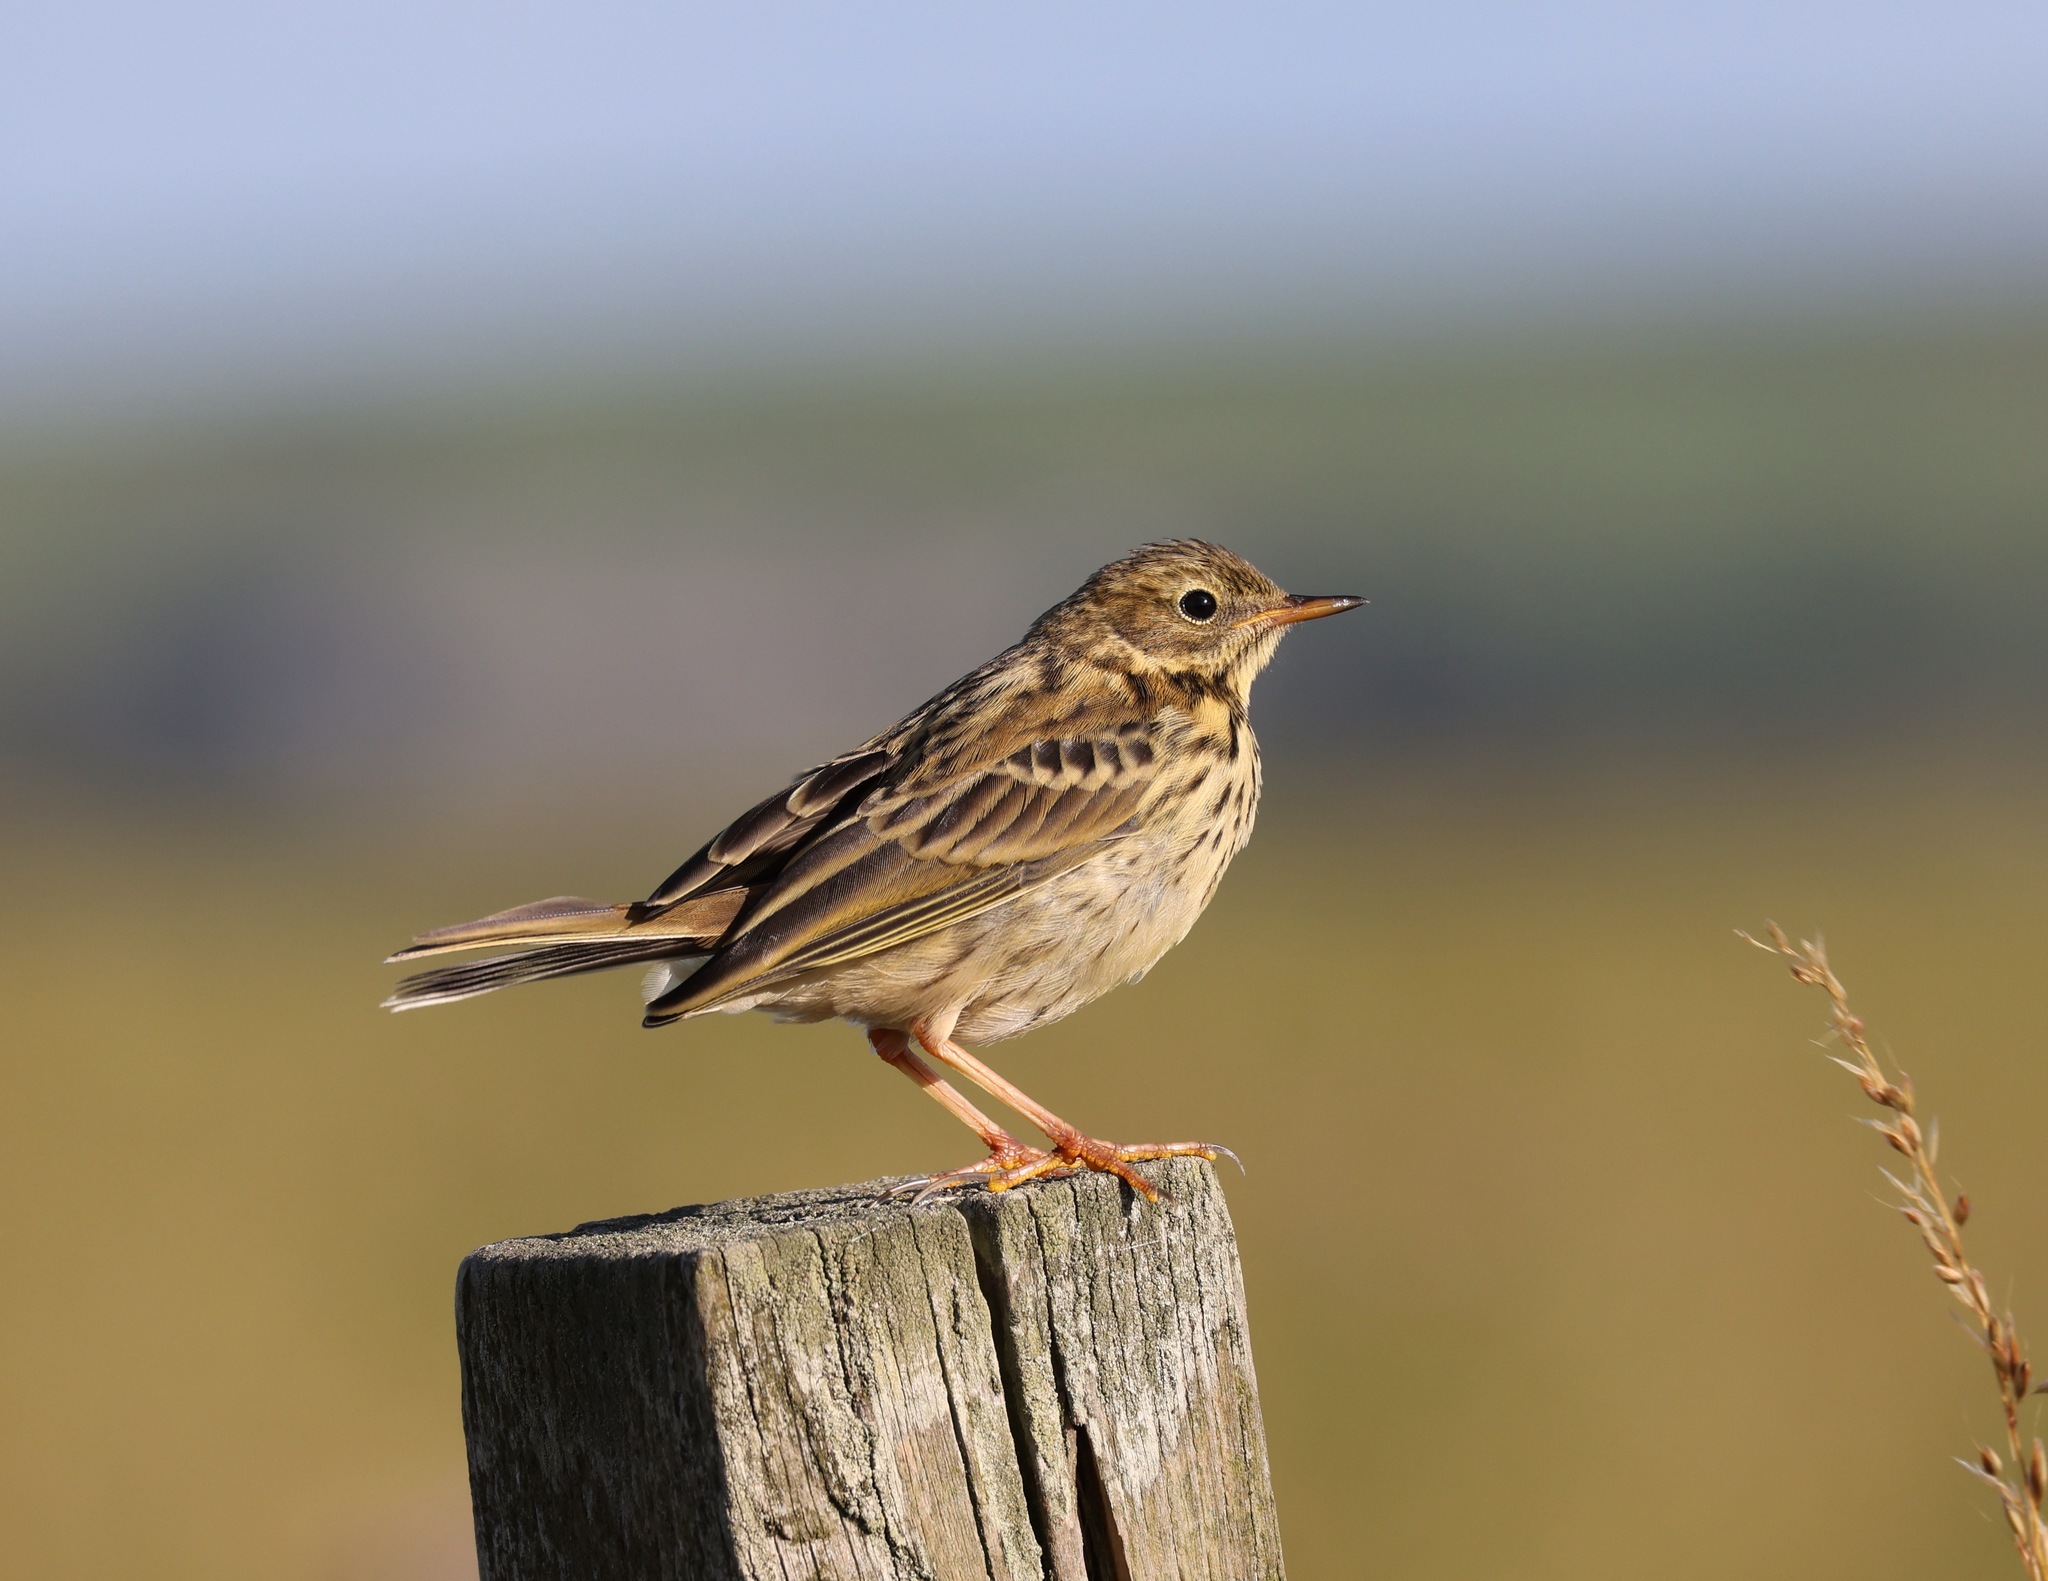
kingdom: Animalia
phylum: Chordata
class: Aves
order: Passeriformes
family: Motacillidae
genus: Anthus
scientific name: Anthus pratensis
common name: Meadow pipit
